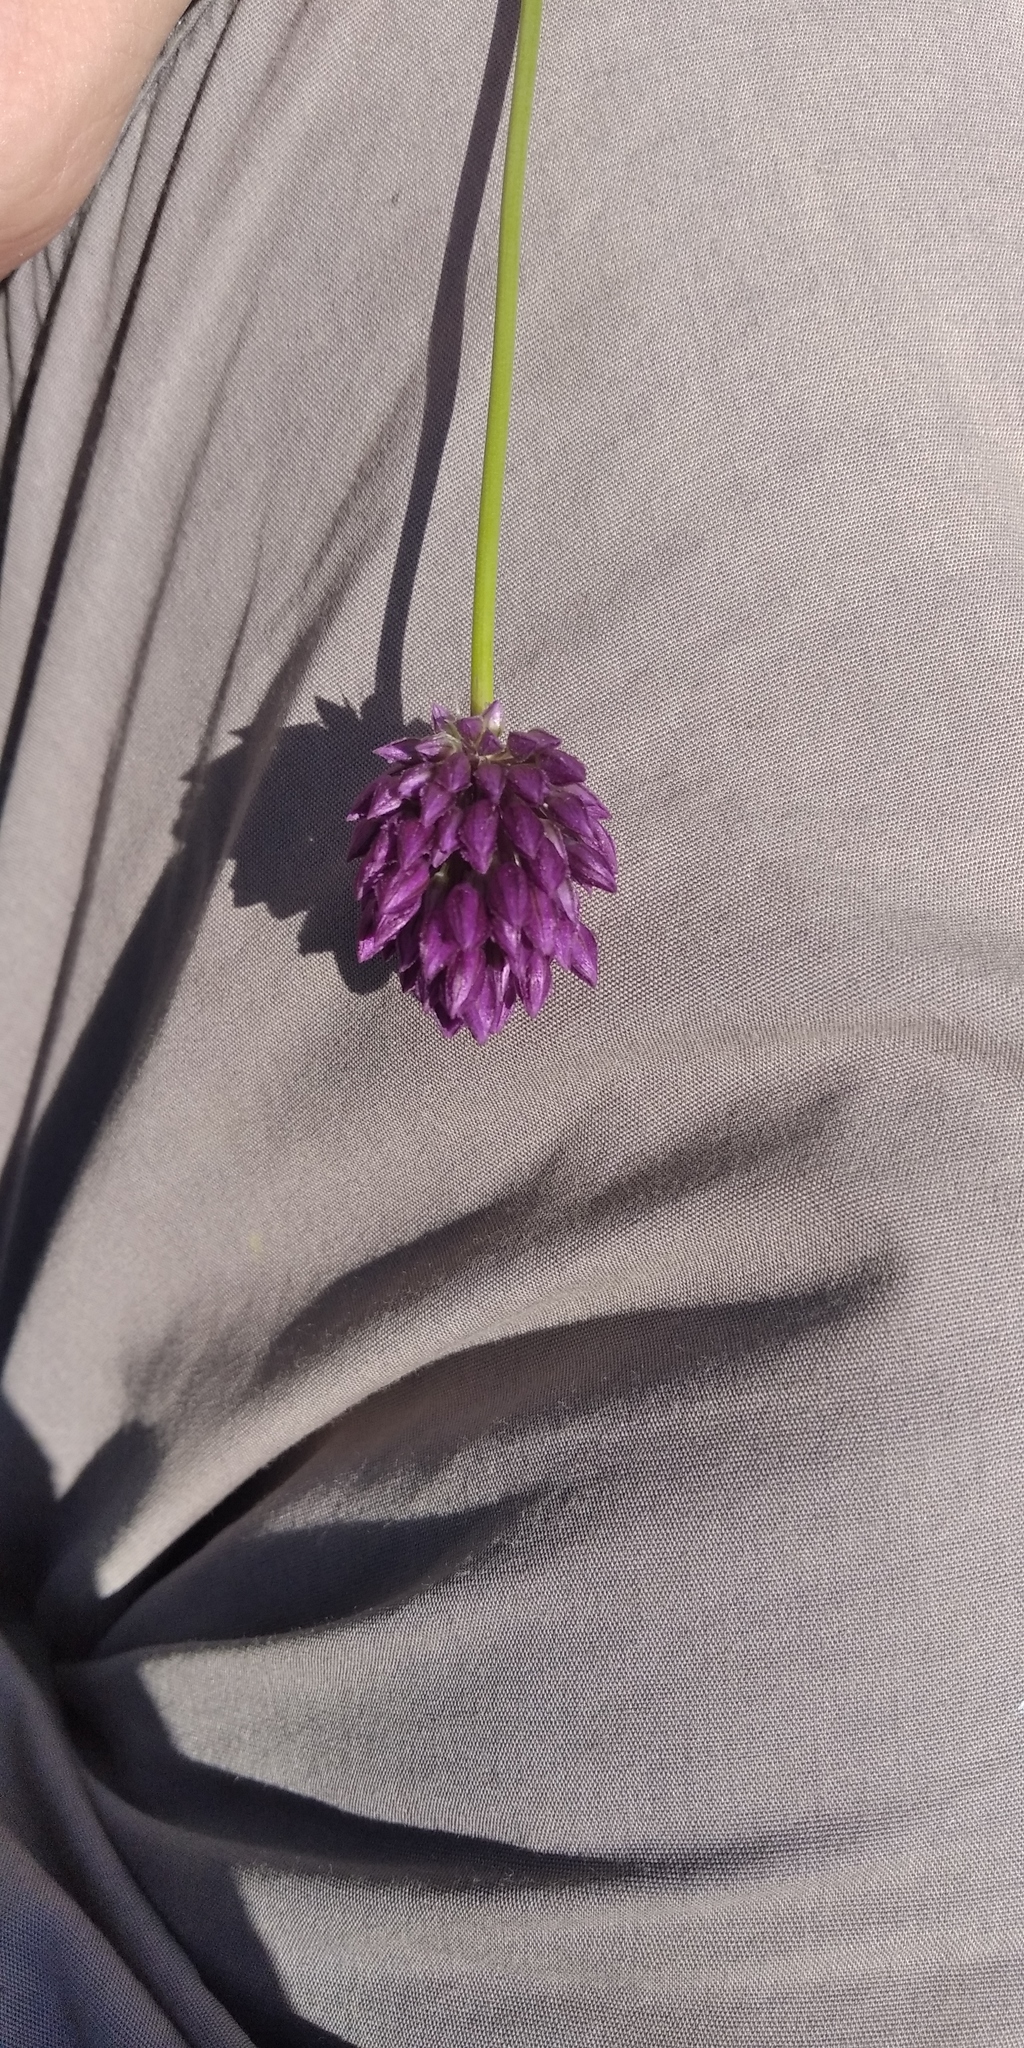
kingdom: Plantae
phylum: Tracheophyta
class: Liliopsida
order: Asparagales
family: Amaryllidaceae
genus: Allium
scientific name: Allium rotundum
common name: Sand leek
